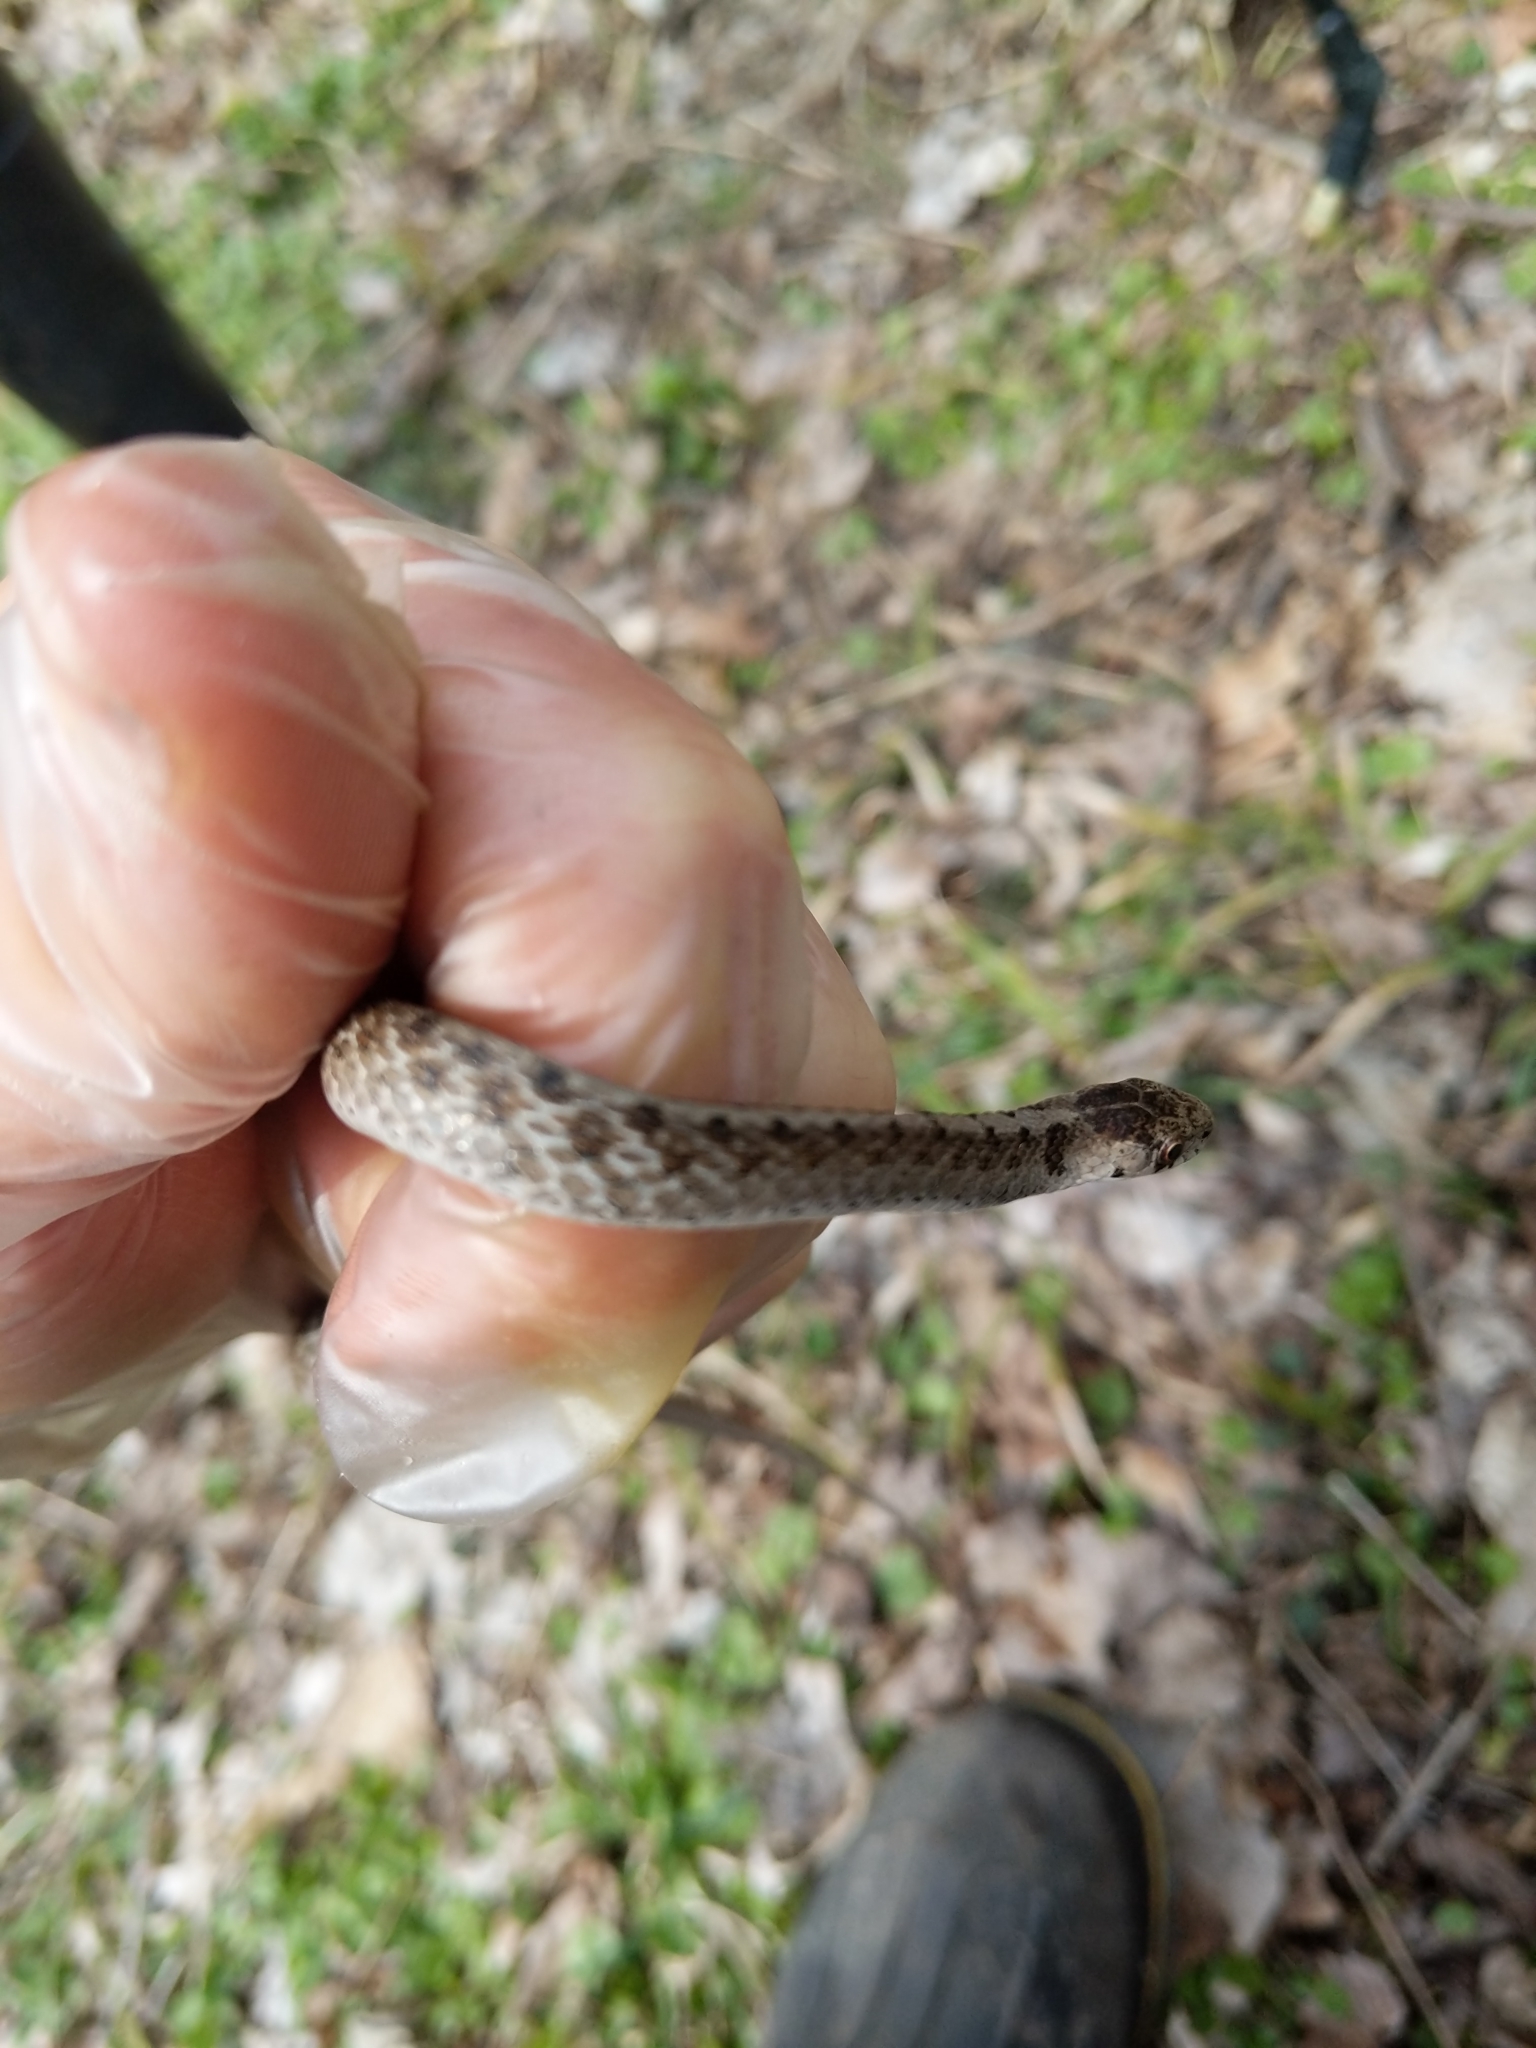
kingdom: Animalia
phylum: Chordata
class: Squamata
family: Colubridae
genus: Storeria
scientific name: Storeria dekayi
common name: (dekay’s) brown snake
